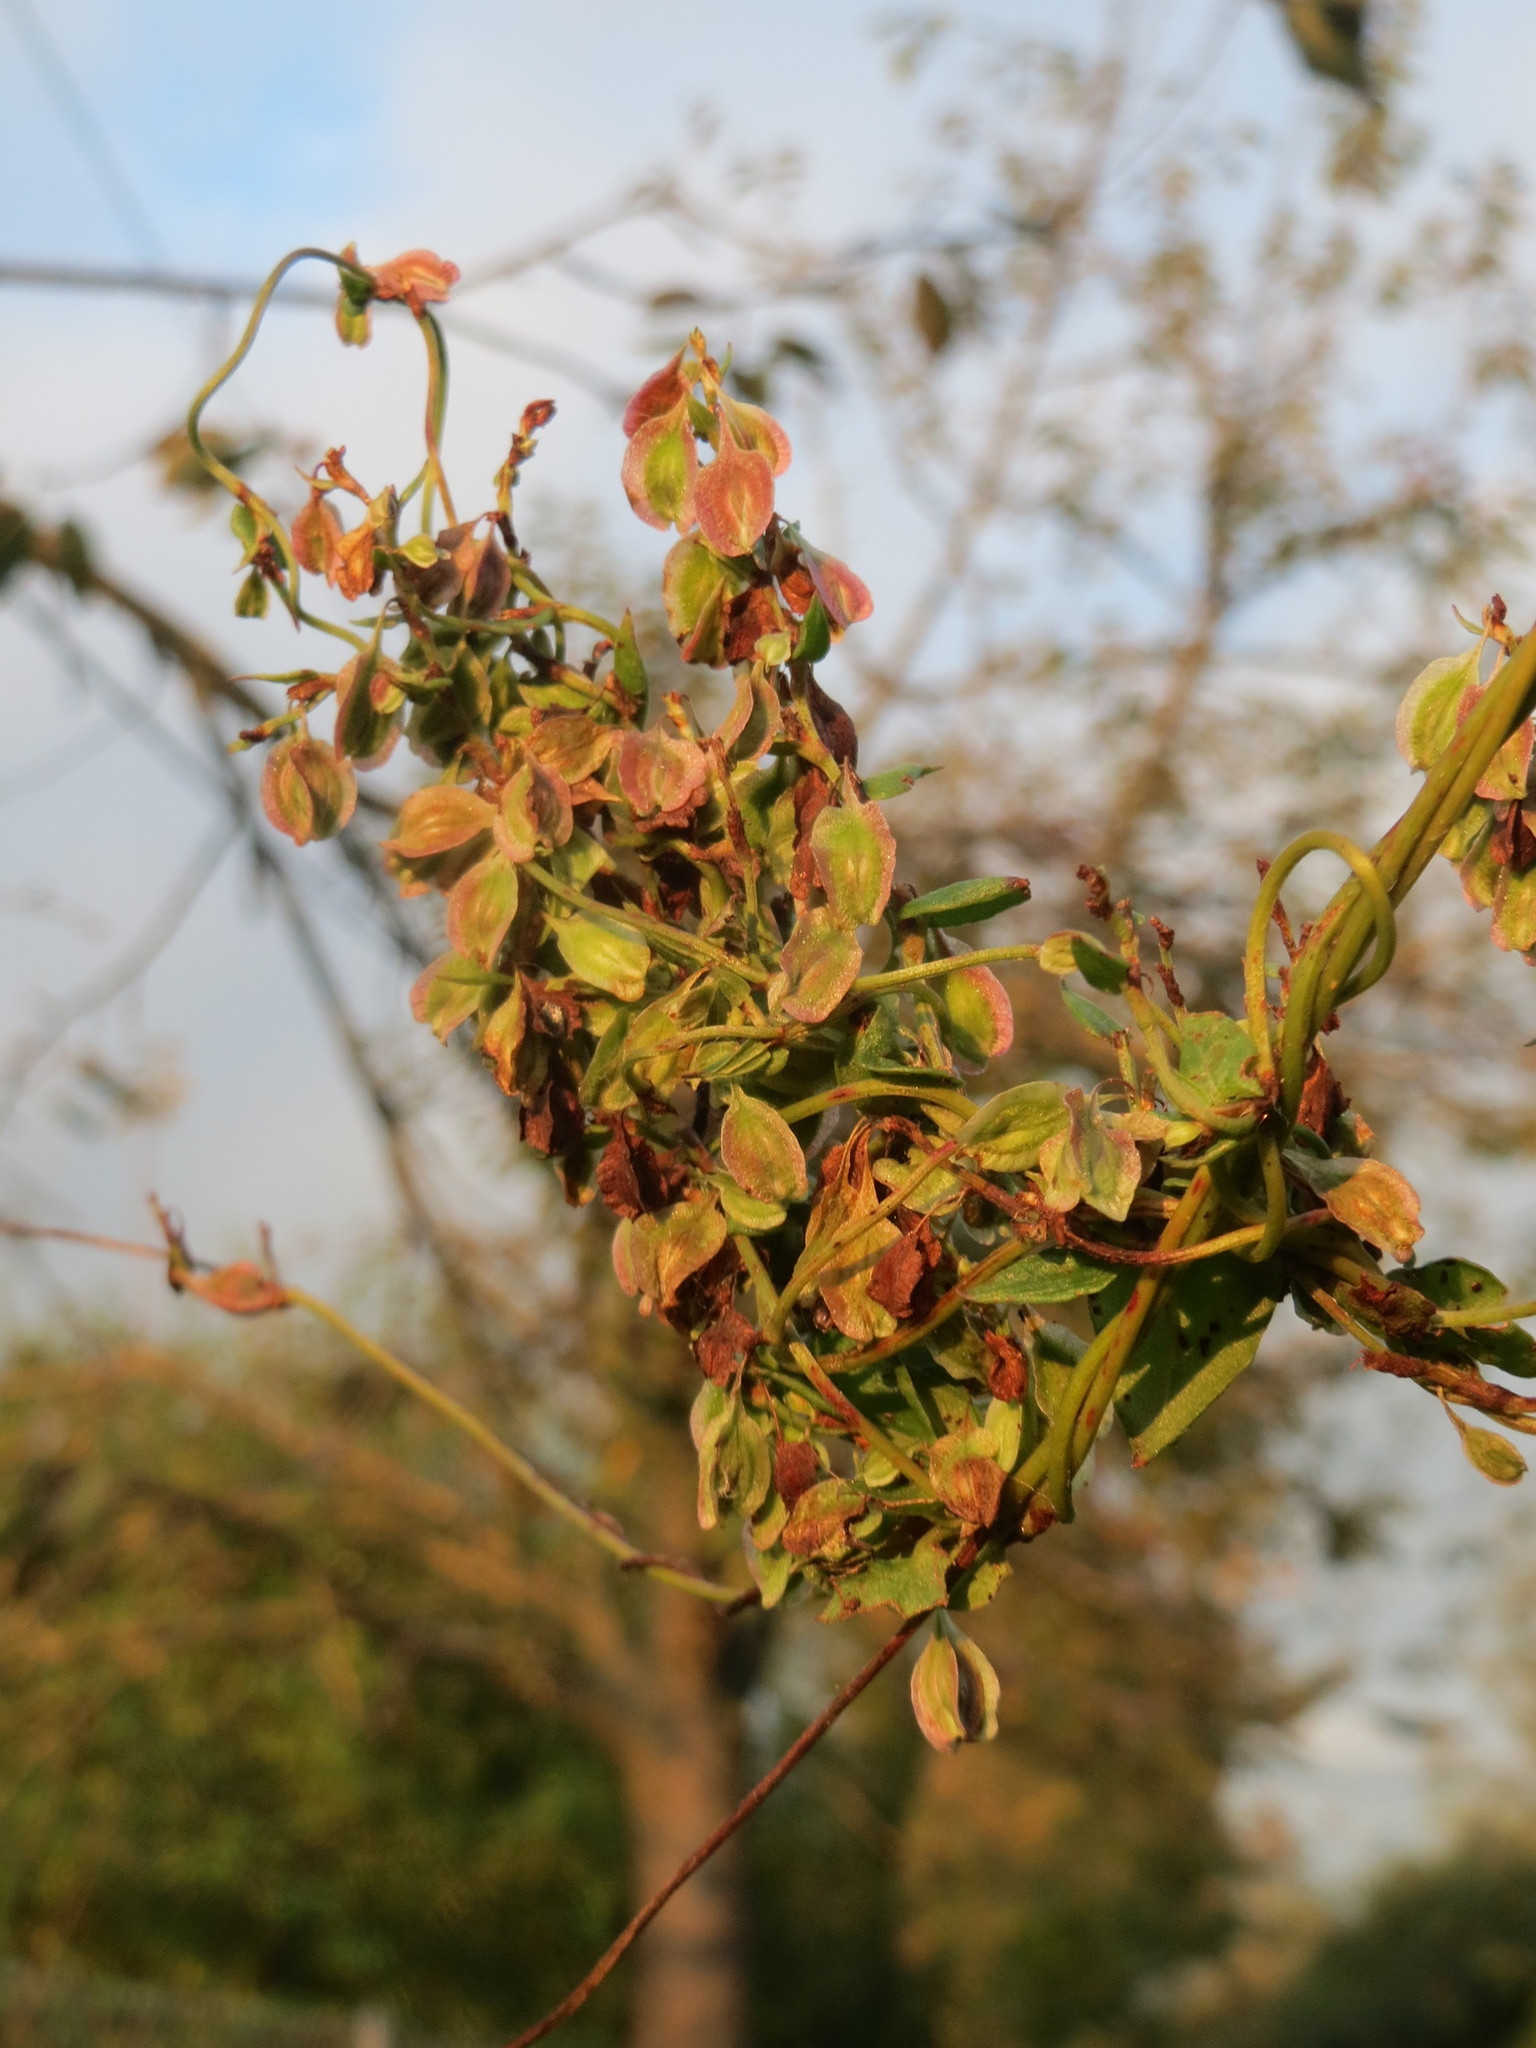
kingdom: Plantae
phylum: Tracheophyta
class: Magnoliopsida
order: Caryophyllales
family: Polygonaceae
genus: Fallopia
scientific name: Fallopia dumetorum
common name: Copse-bindweed
